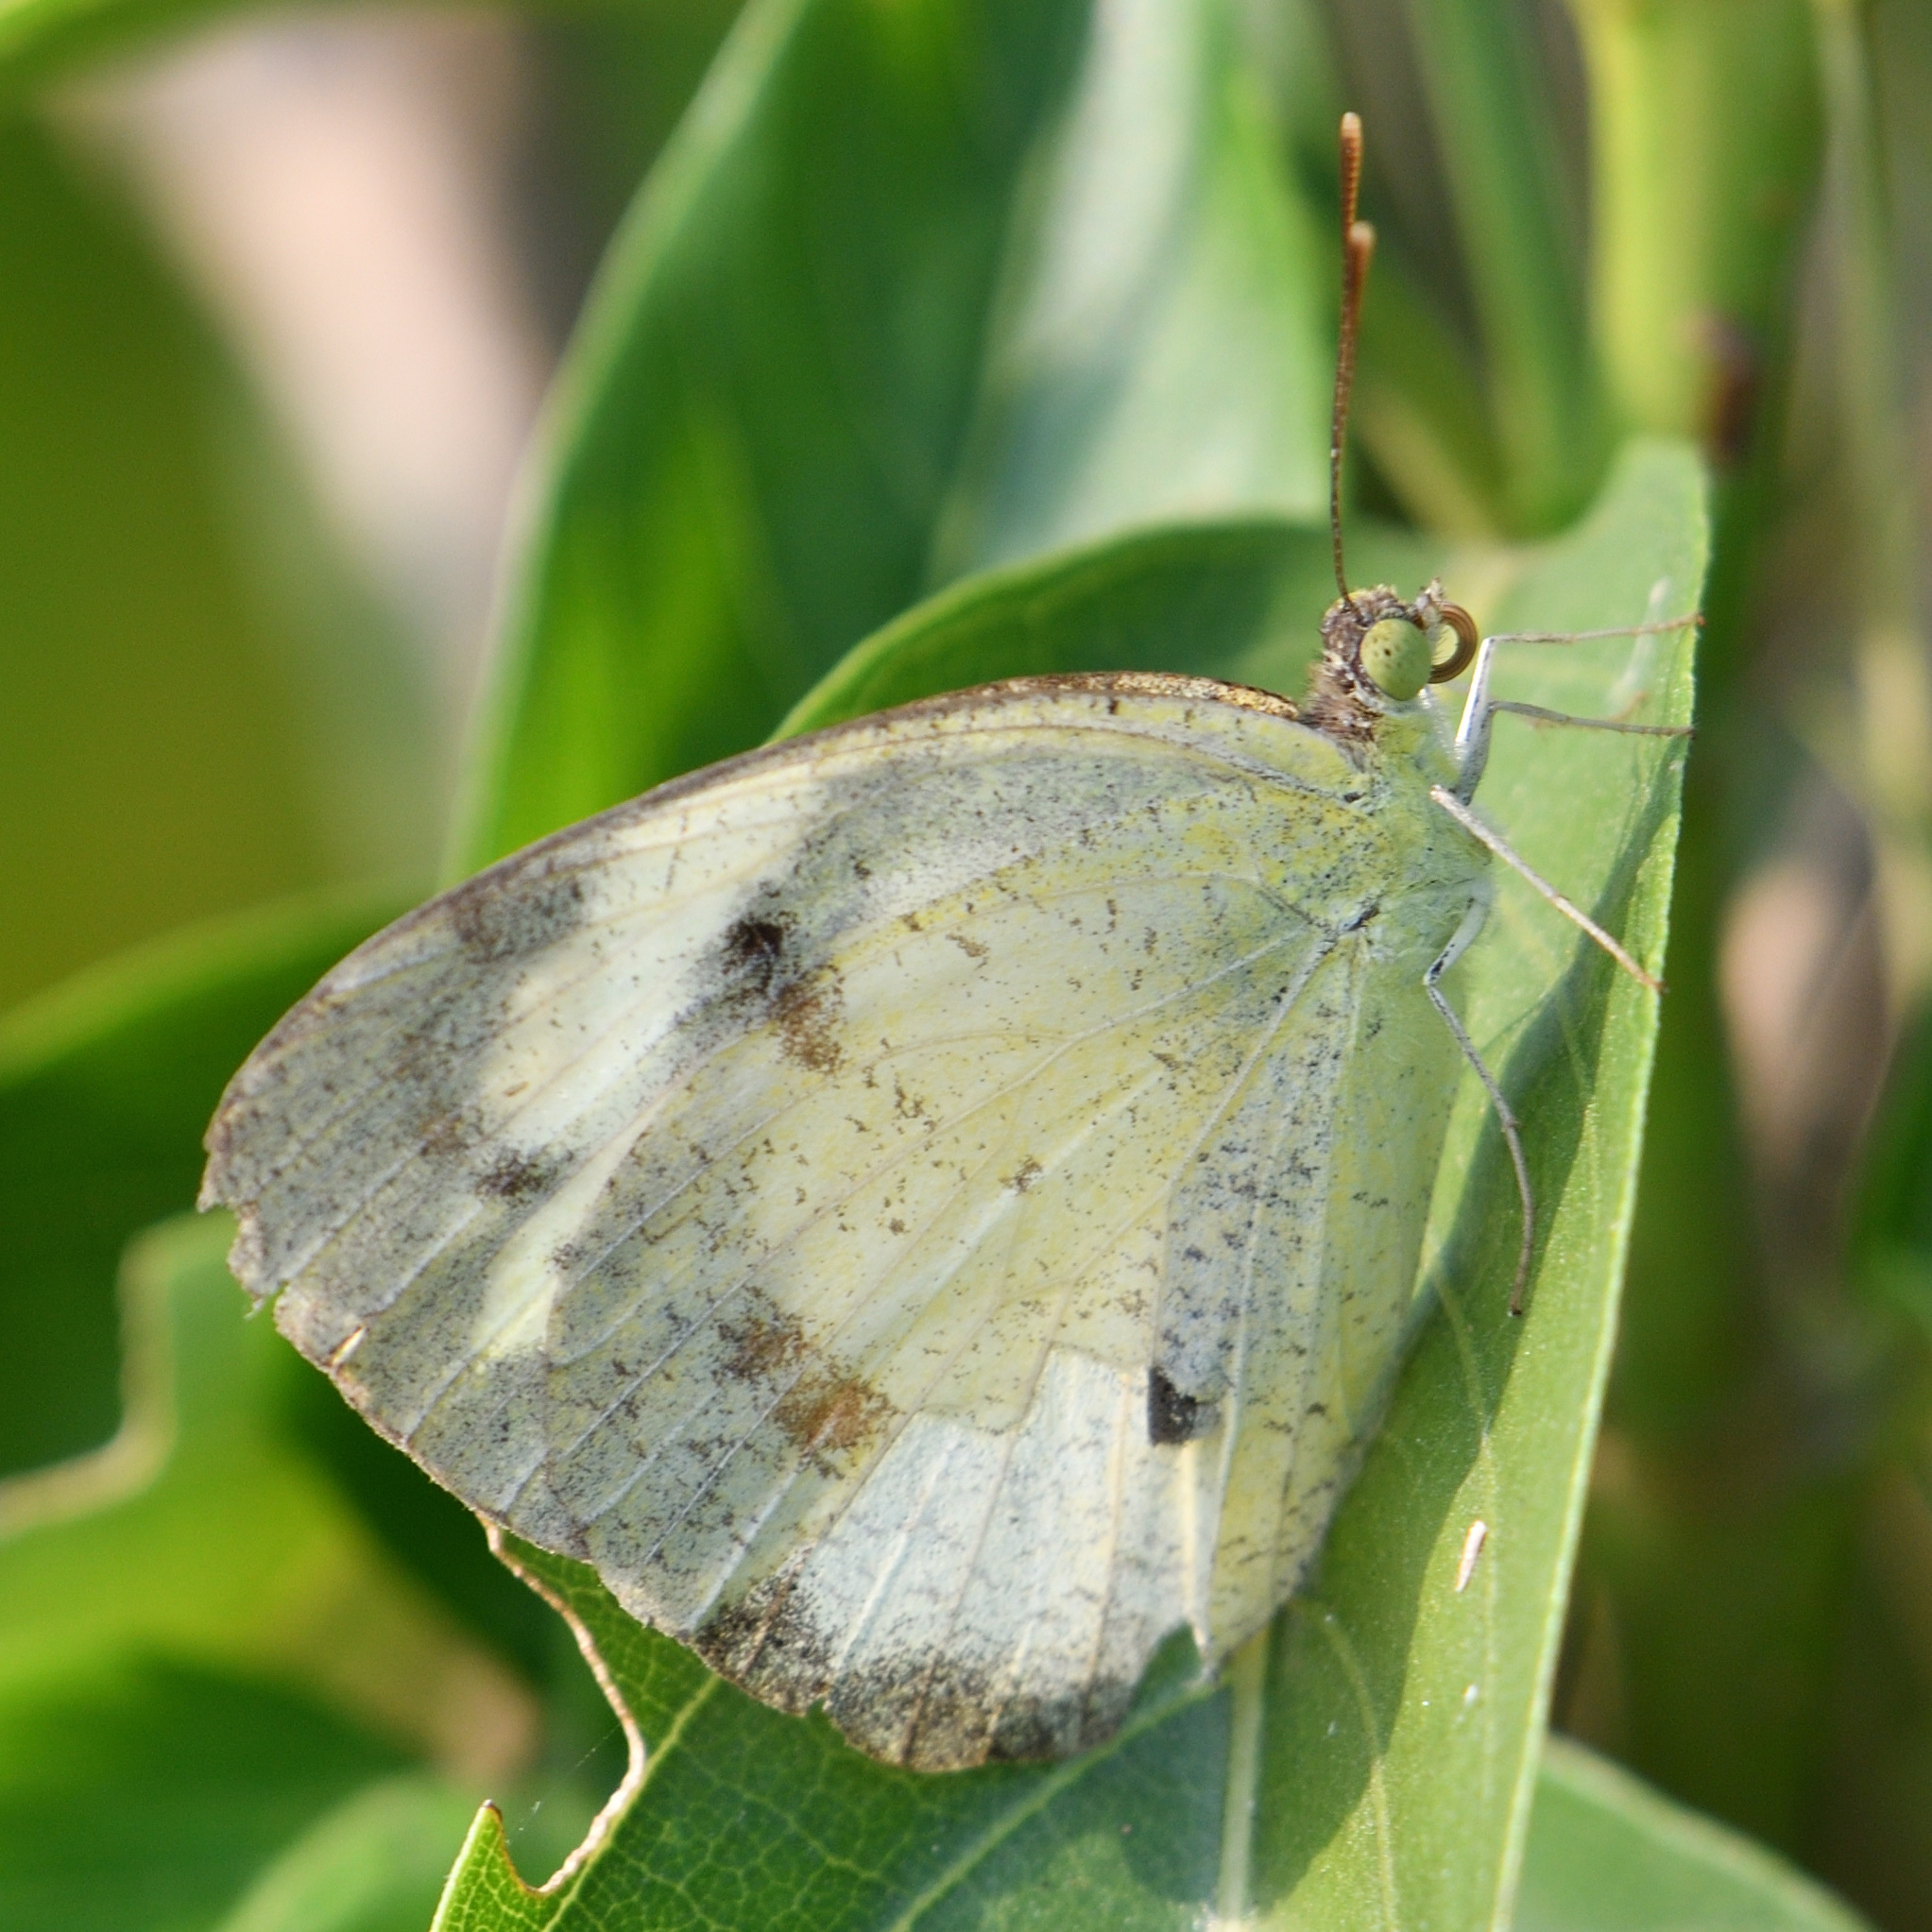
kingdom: Animalia
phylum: Arthropoda
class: Insecta
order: Lepidoptera
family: Pieridae
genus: Ixias
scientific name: Ixias pyrene
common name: Yellow orange tip
